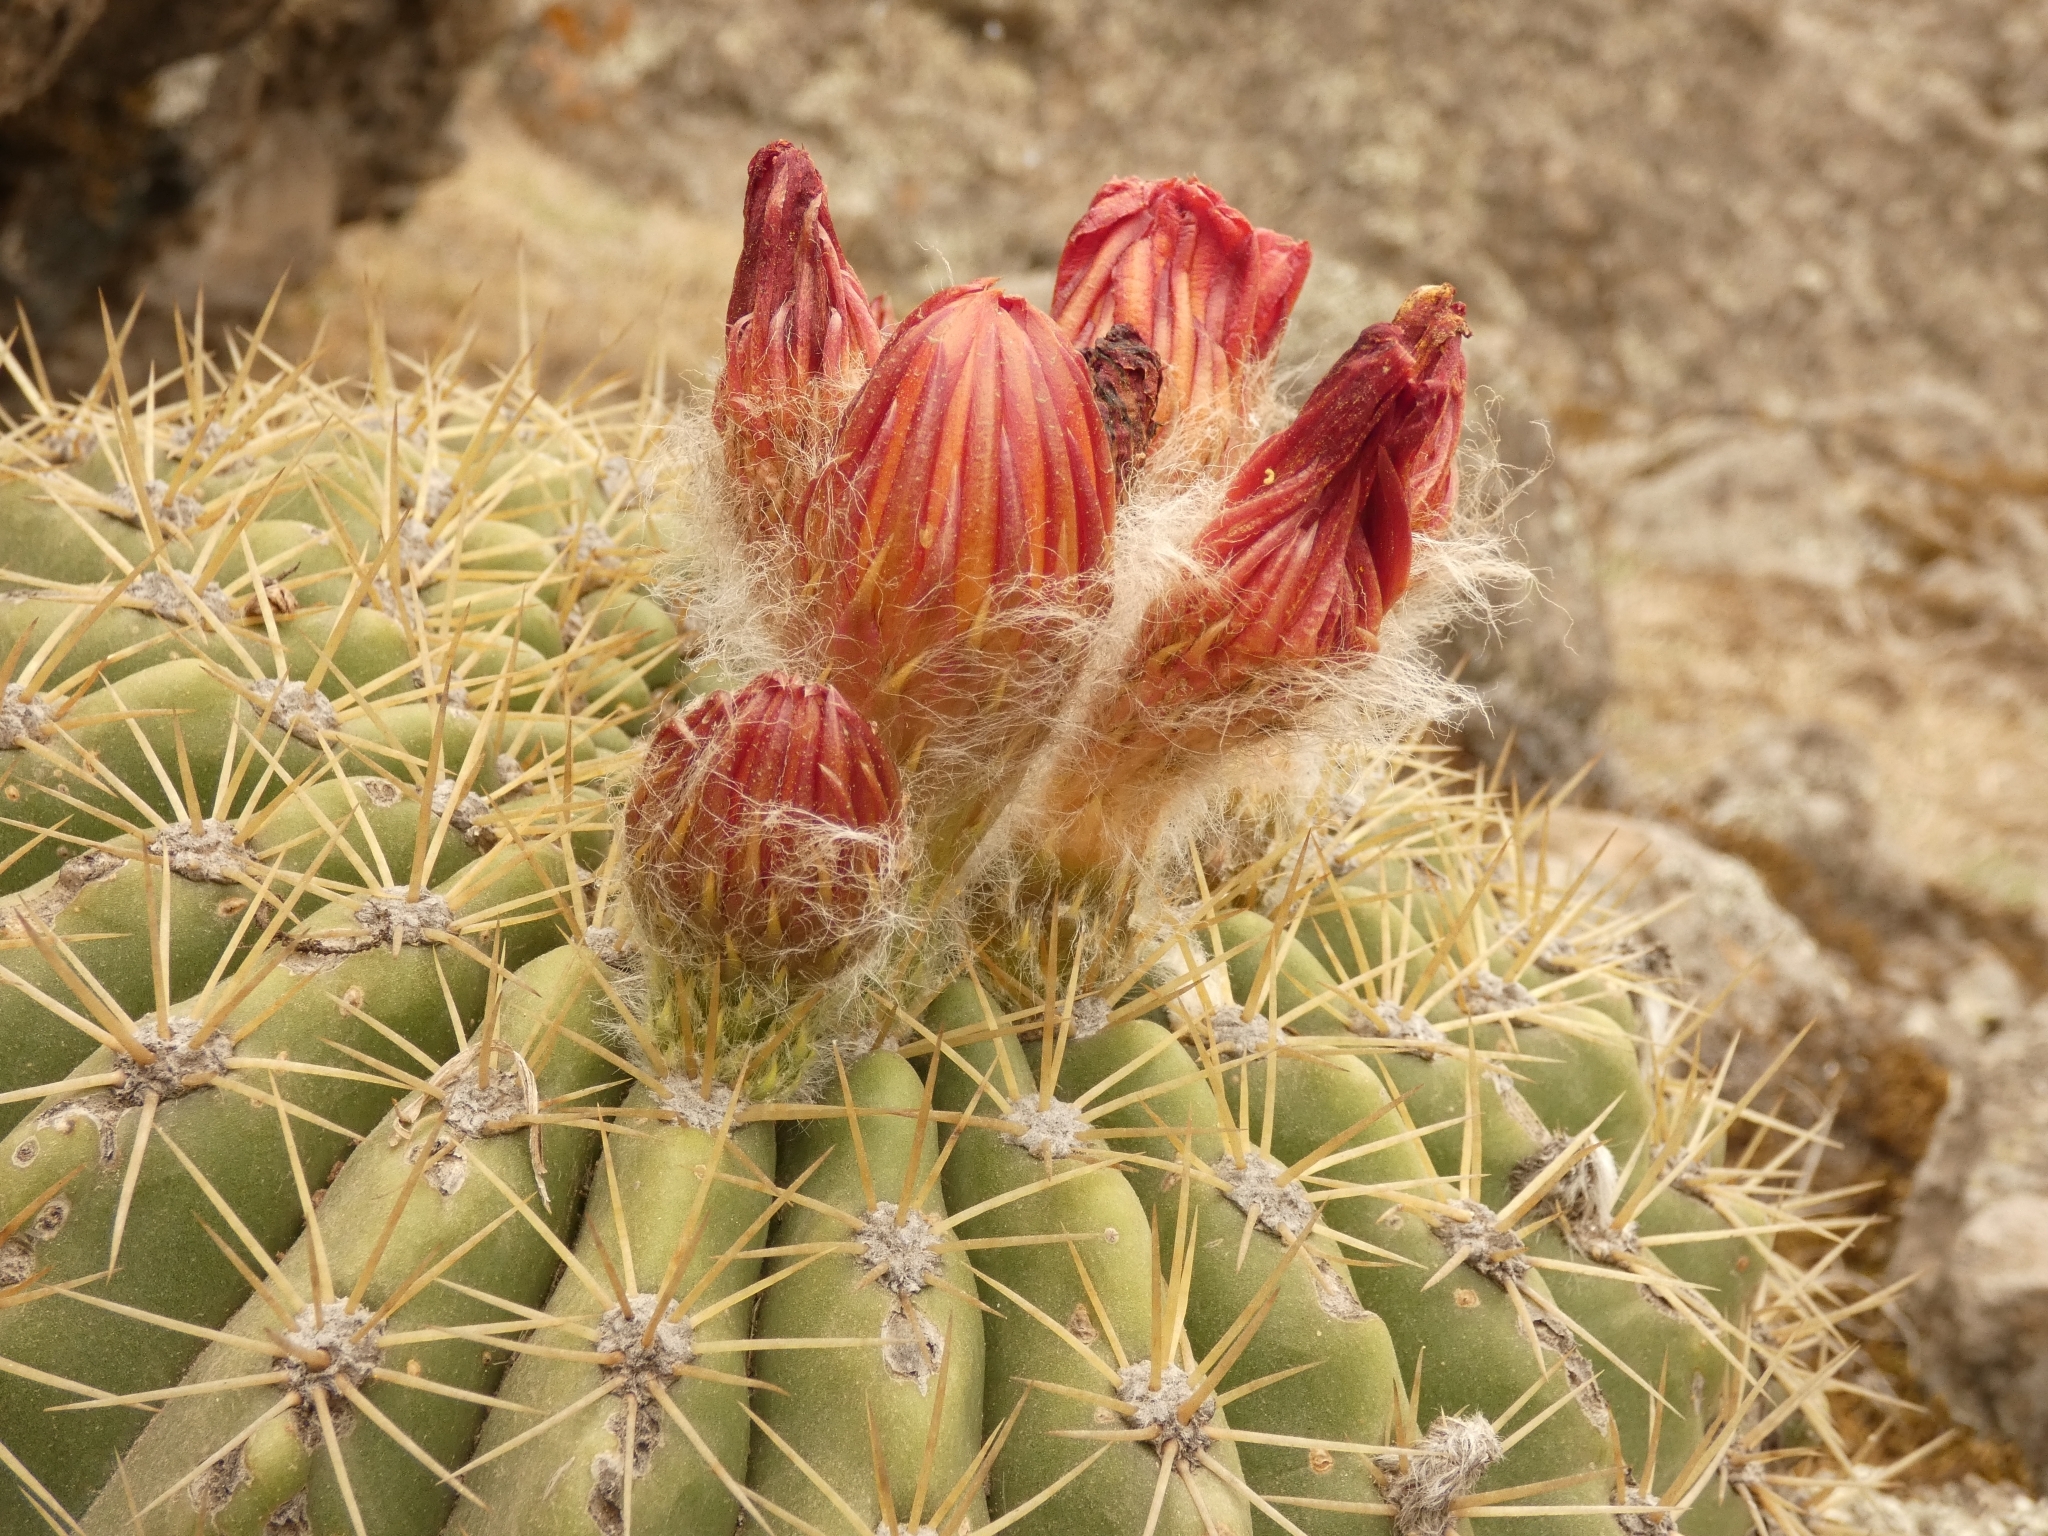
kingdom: Plantae
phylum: Tracheophyta
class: Magnoliopsida
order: Caryophyllales
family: Cactaceae
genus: Soehrensia
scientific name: Soehrensia bruchii
